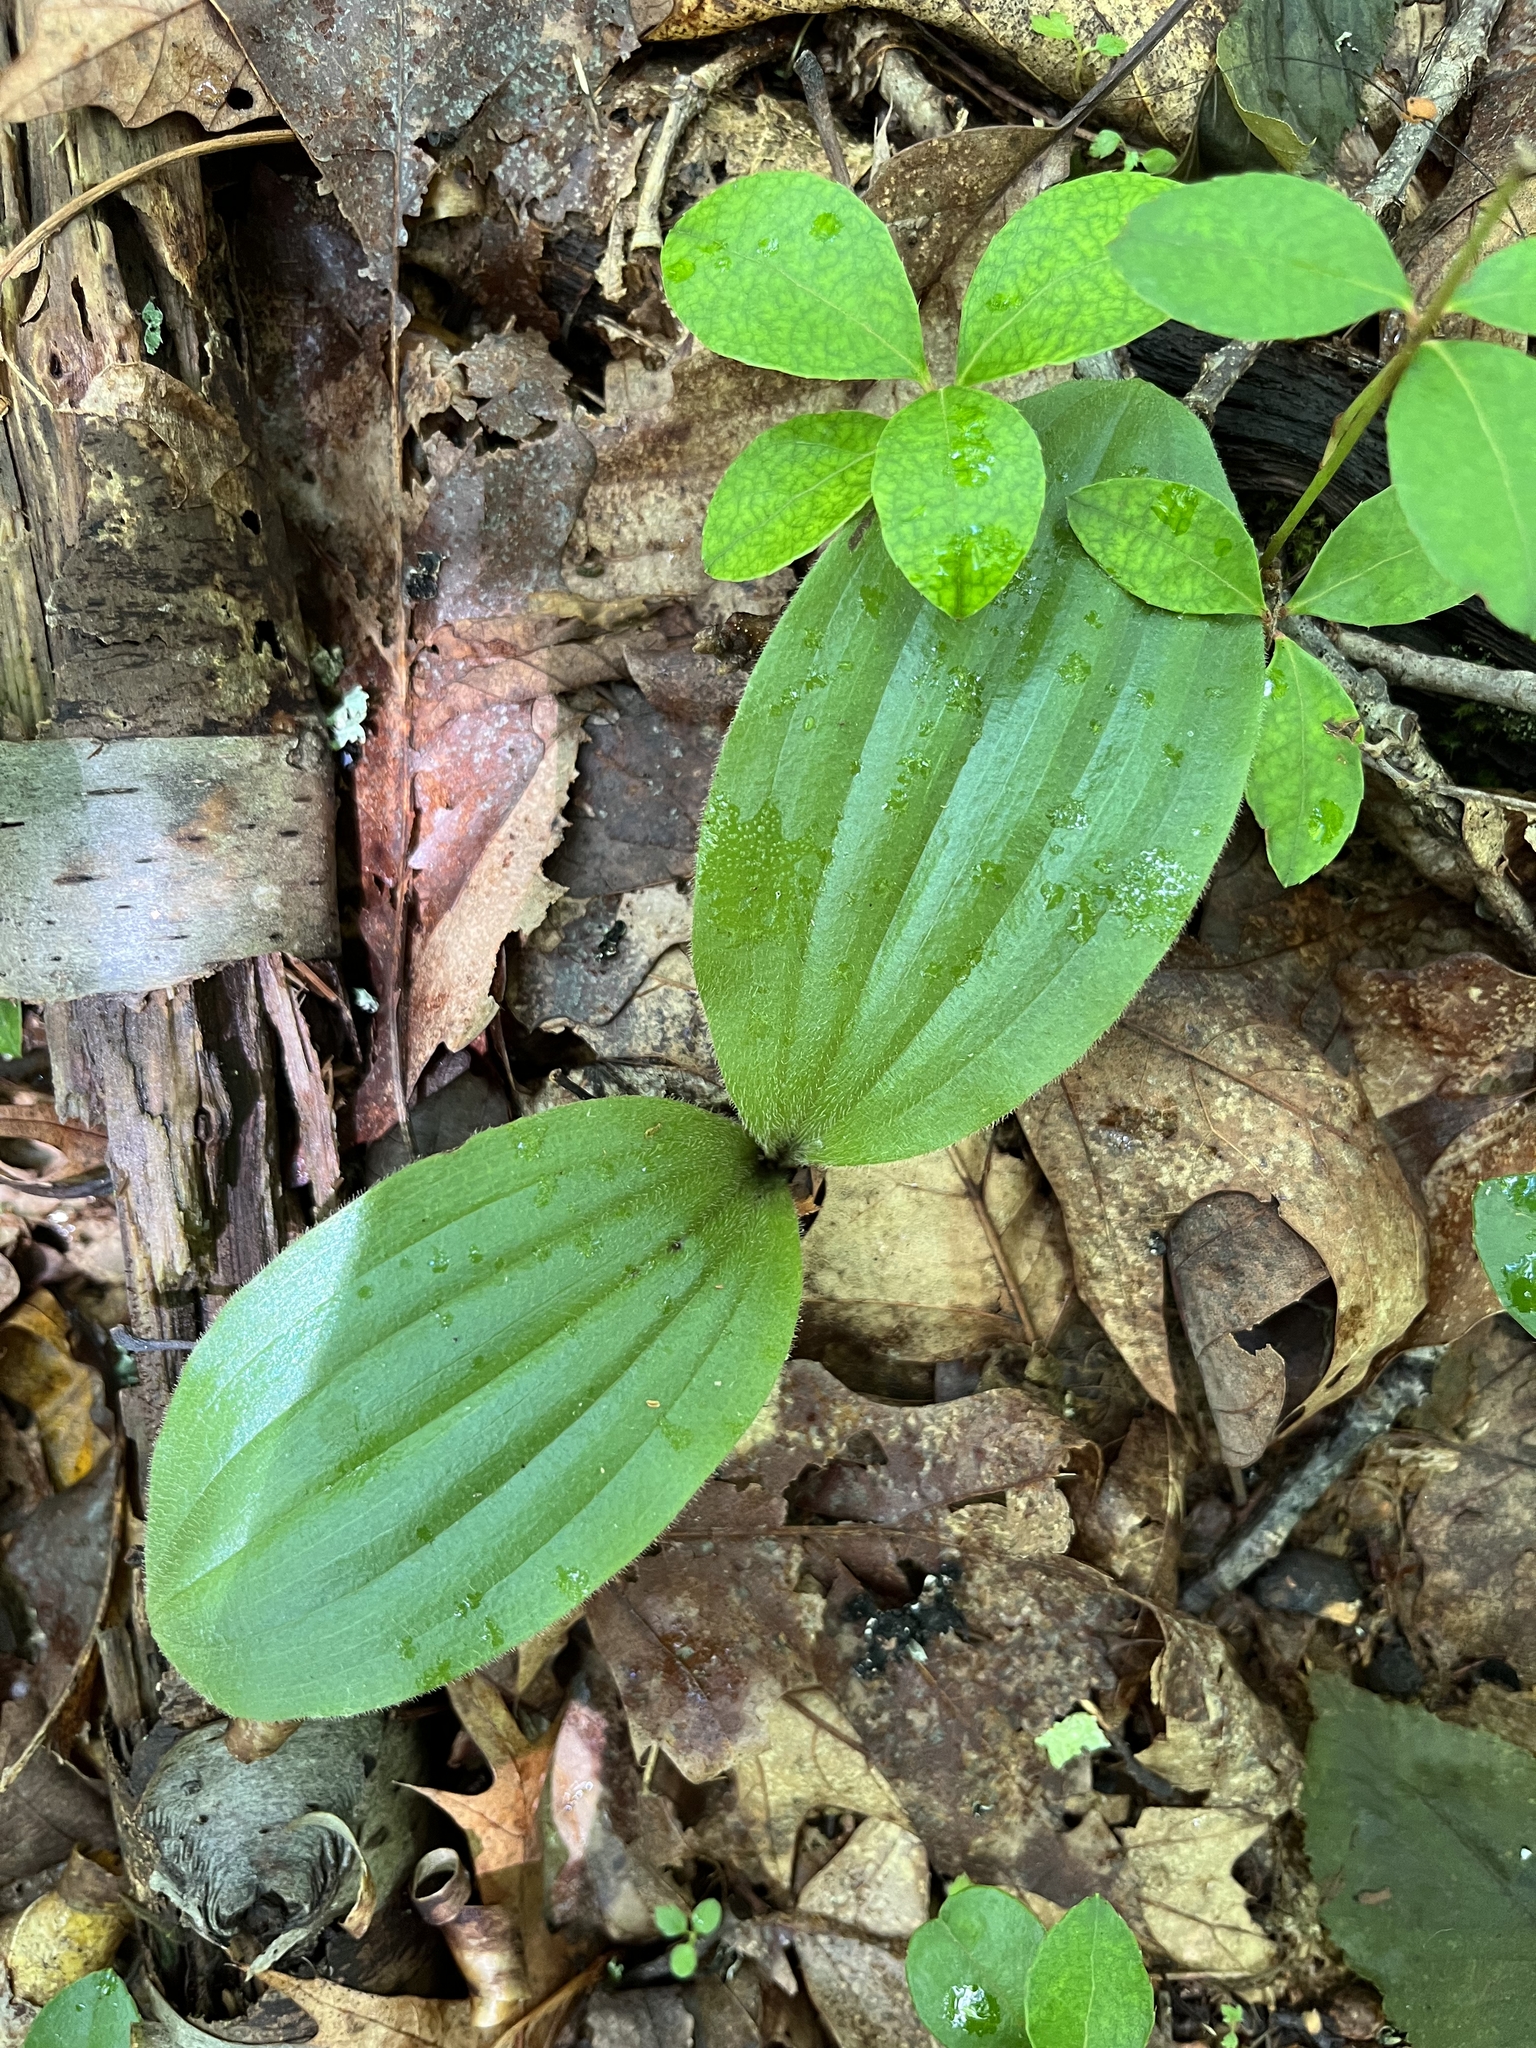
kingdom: Plantae
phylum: Tracheophyta
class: Liliopsida
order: Asparagales
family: Orchidaceae
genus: Cypripedium
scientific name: Cypripedium acaule
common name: Pink lady's-slipper
